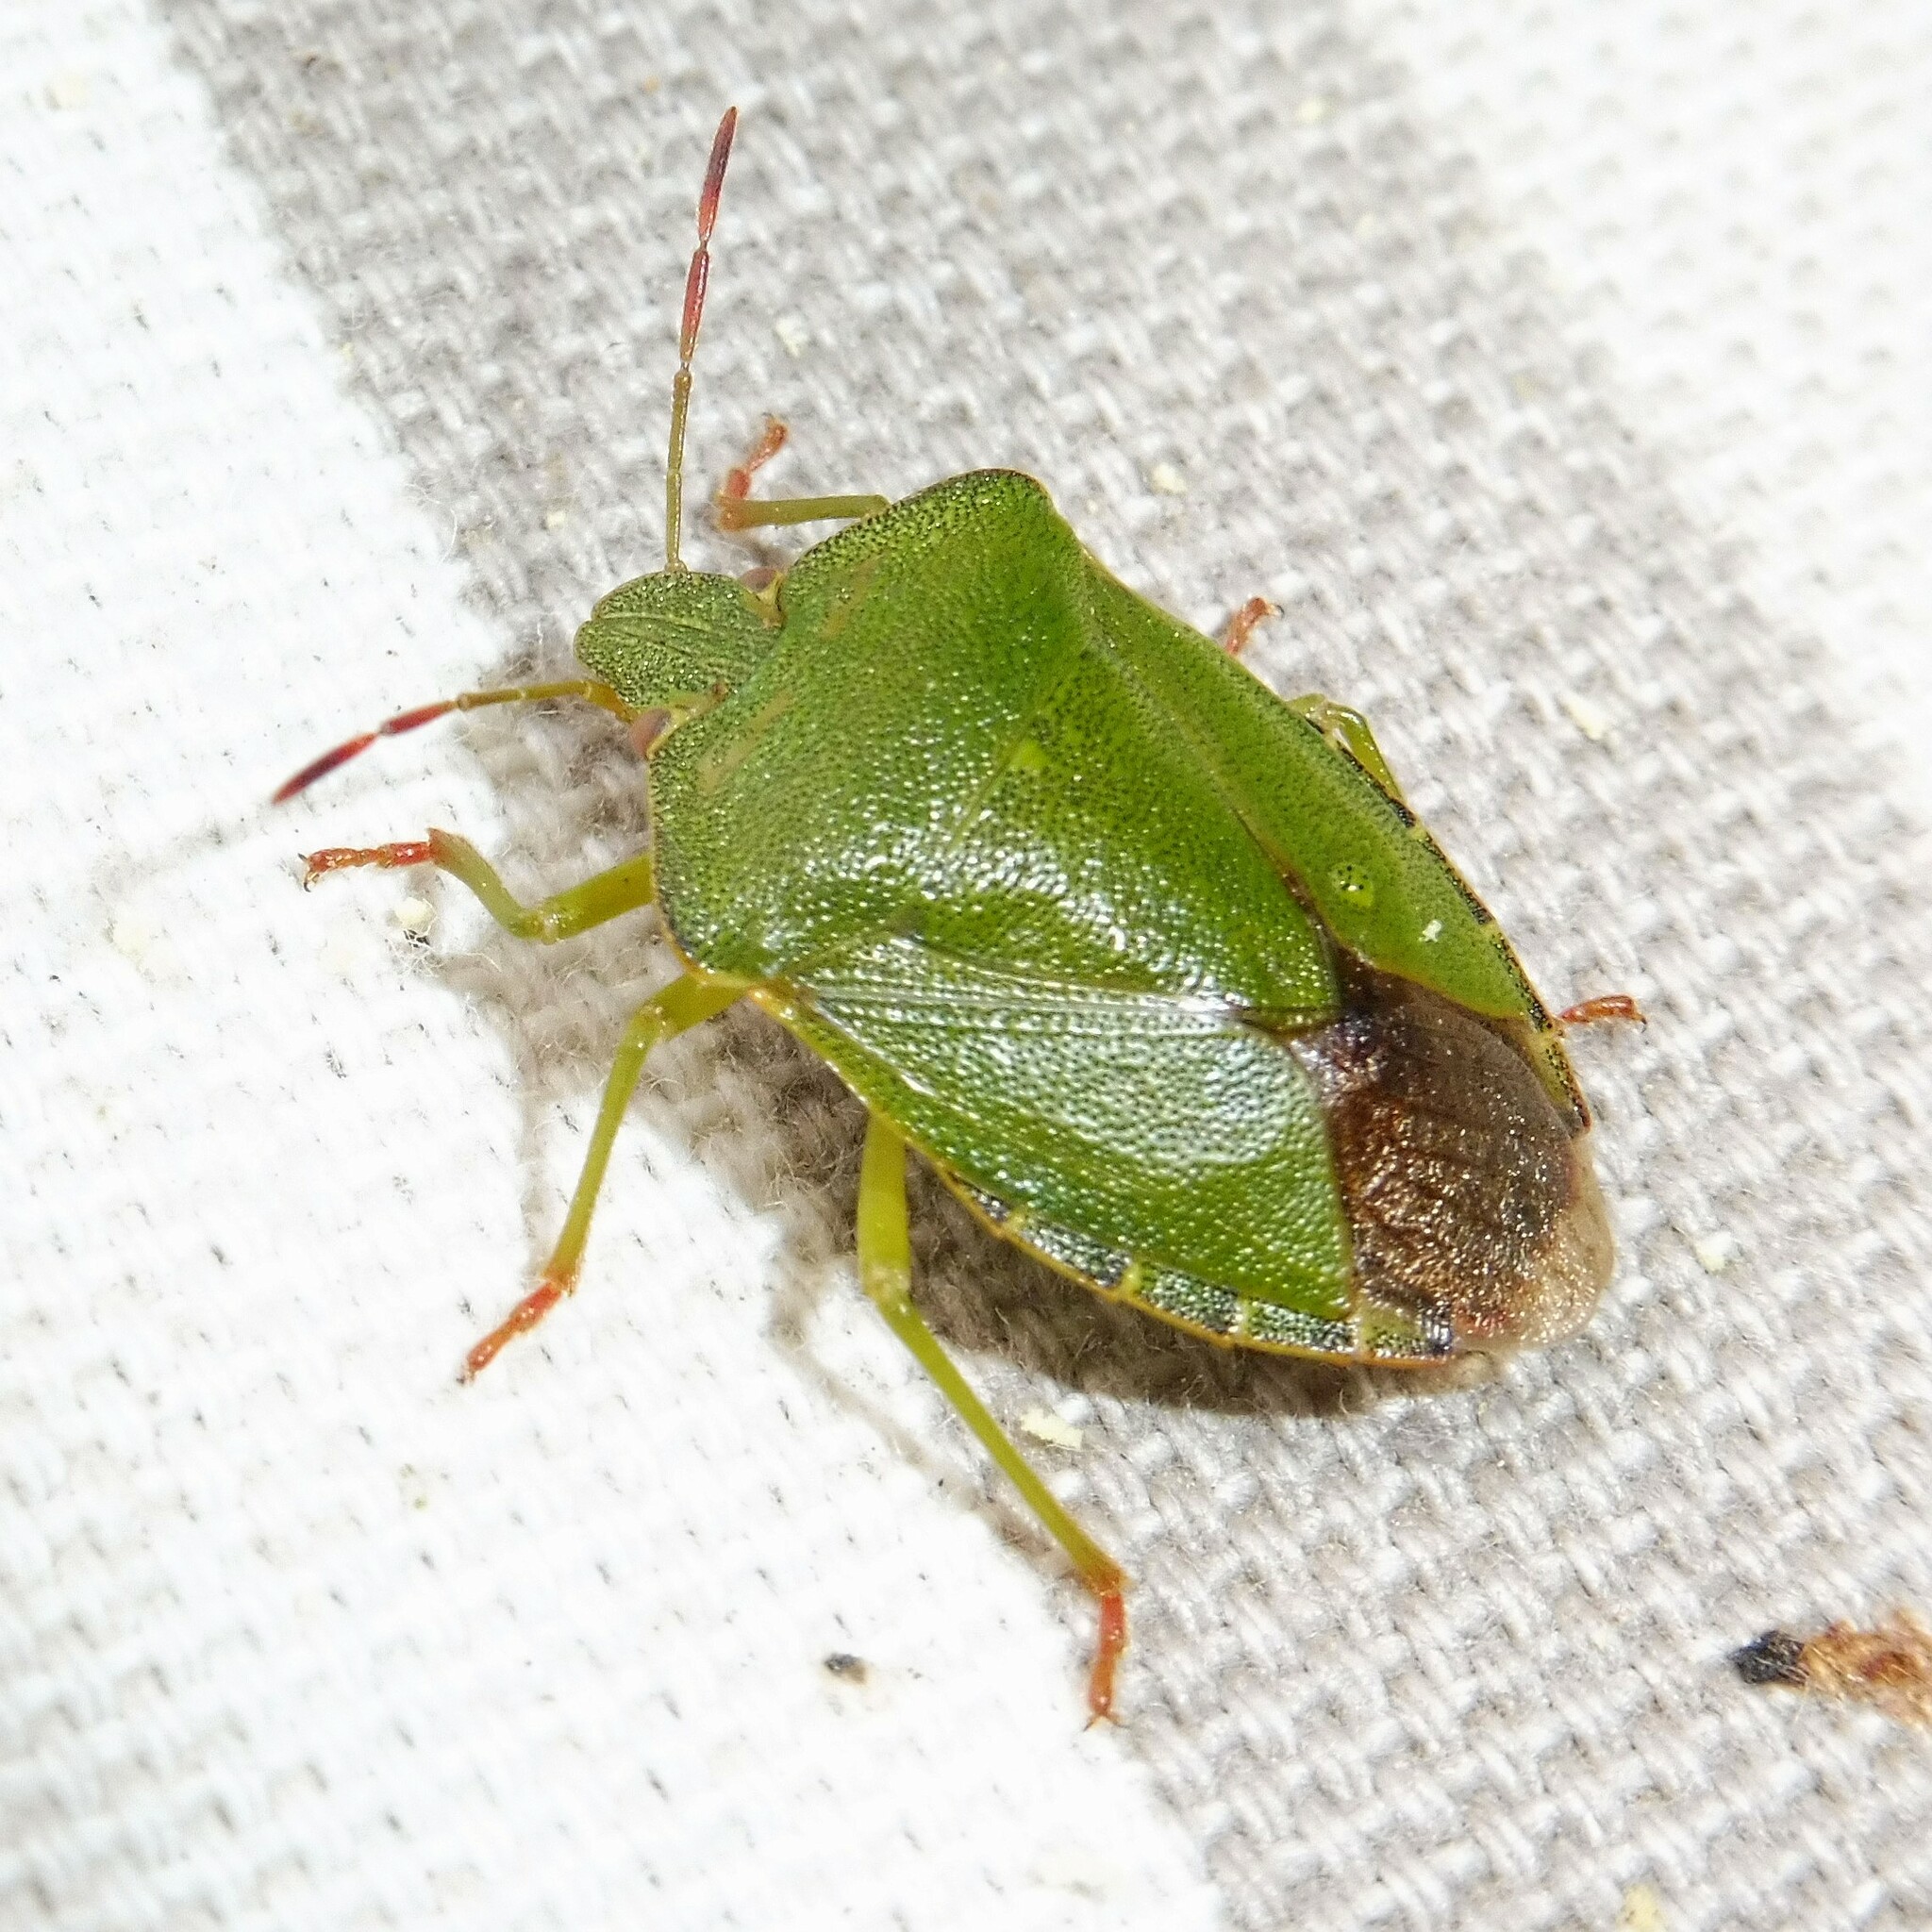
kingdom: Animalia
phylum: Arthropoda
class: Insecta
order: Hemiptera
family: Pentatomidae
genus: Palomena
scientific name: Palomena prasina
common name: Green shieldbug
